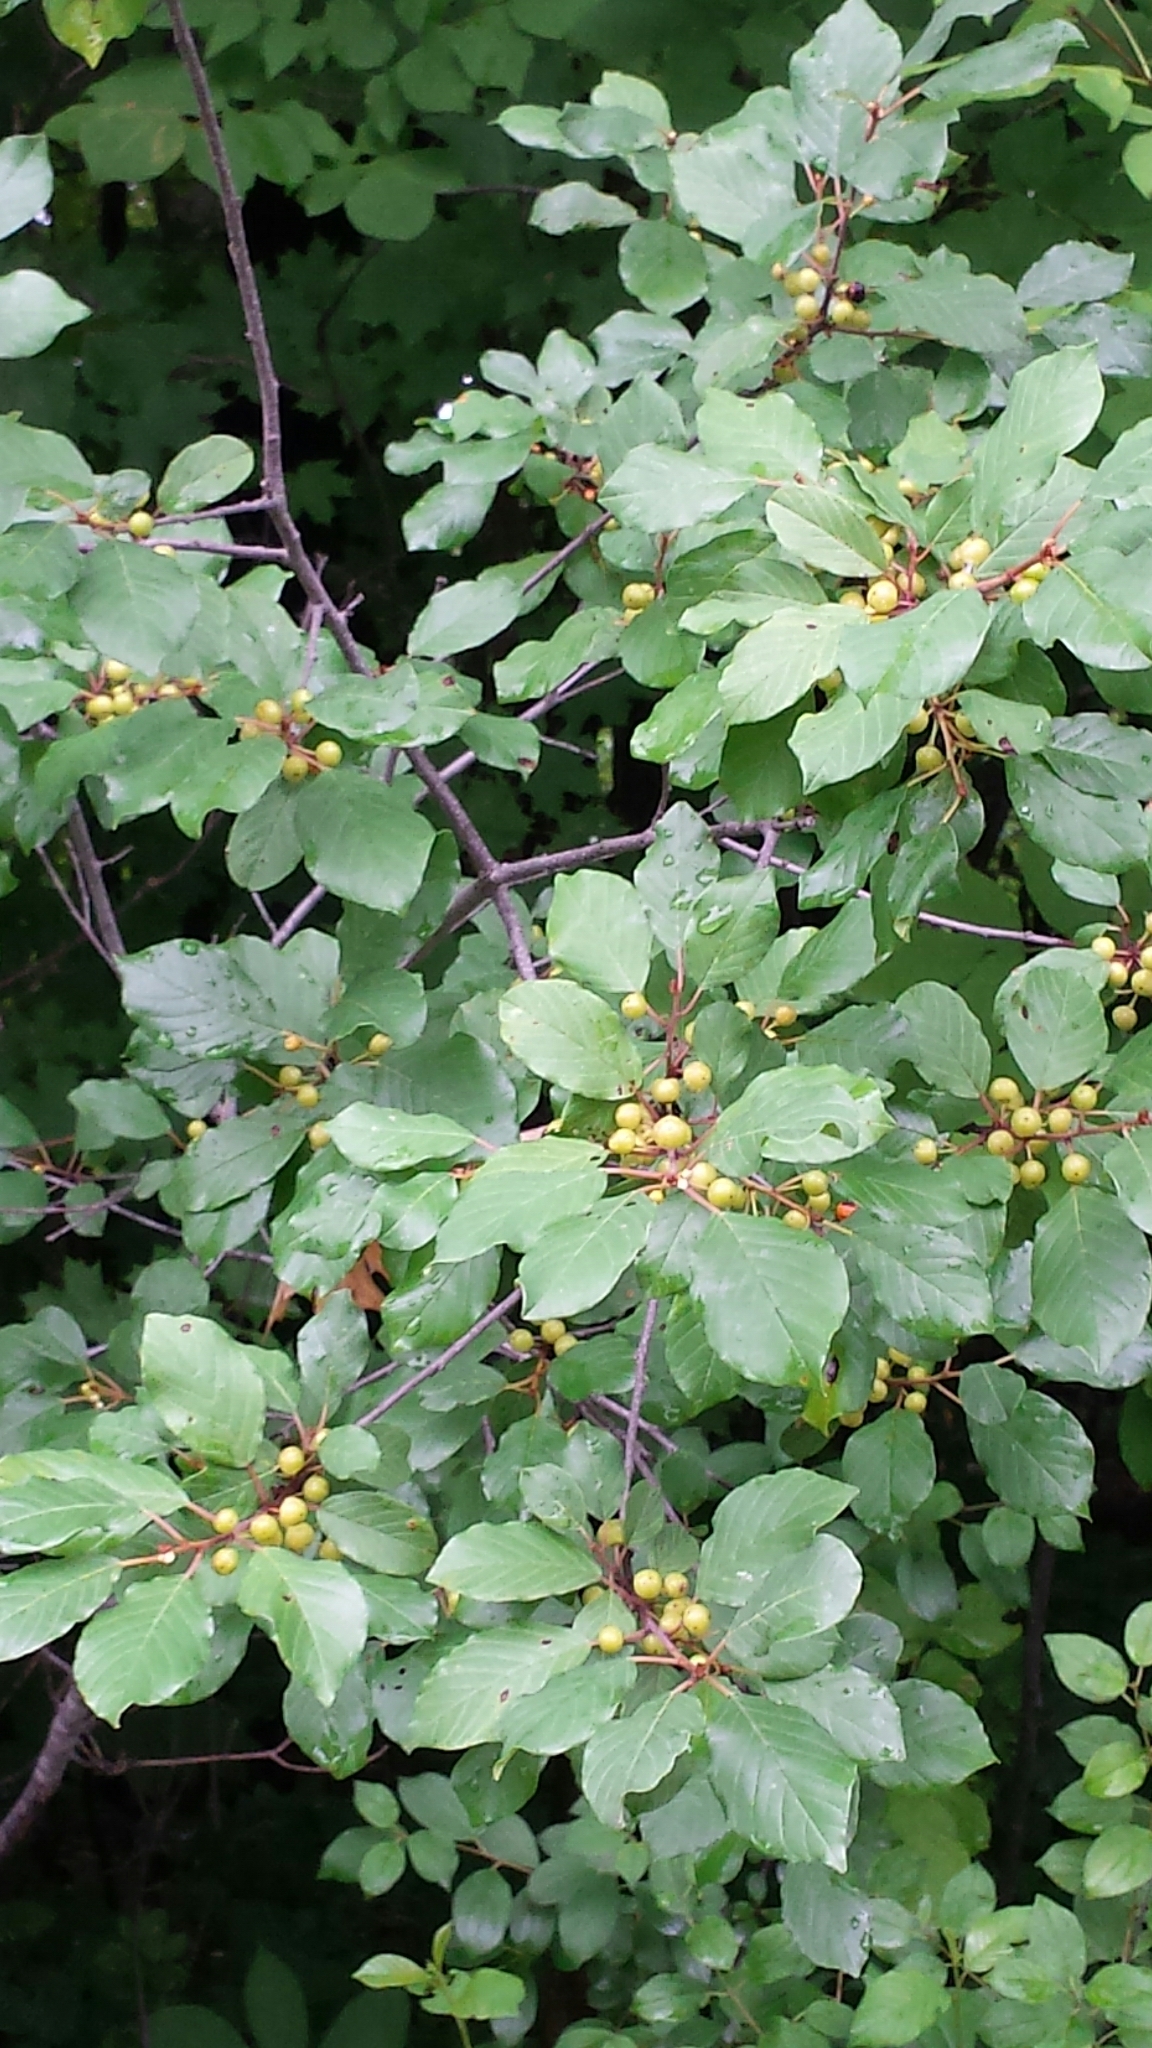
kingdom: Plantae
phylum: Tracheophyta
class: Magnoliopsida
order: Rosales
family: Rhamnaceae
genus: Frangula
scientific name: Frangula alnus
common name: Alder buckthorn
